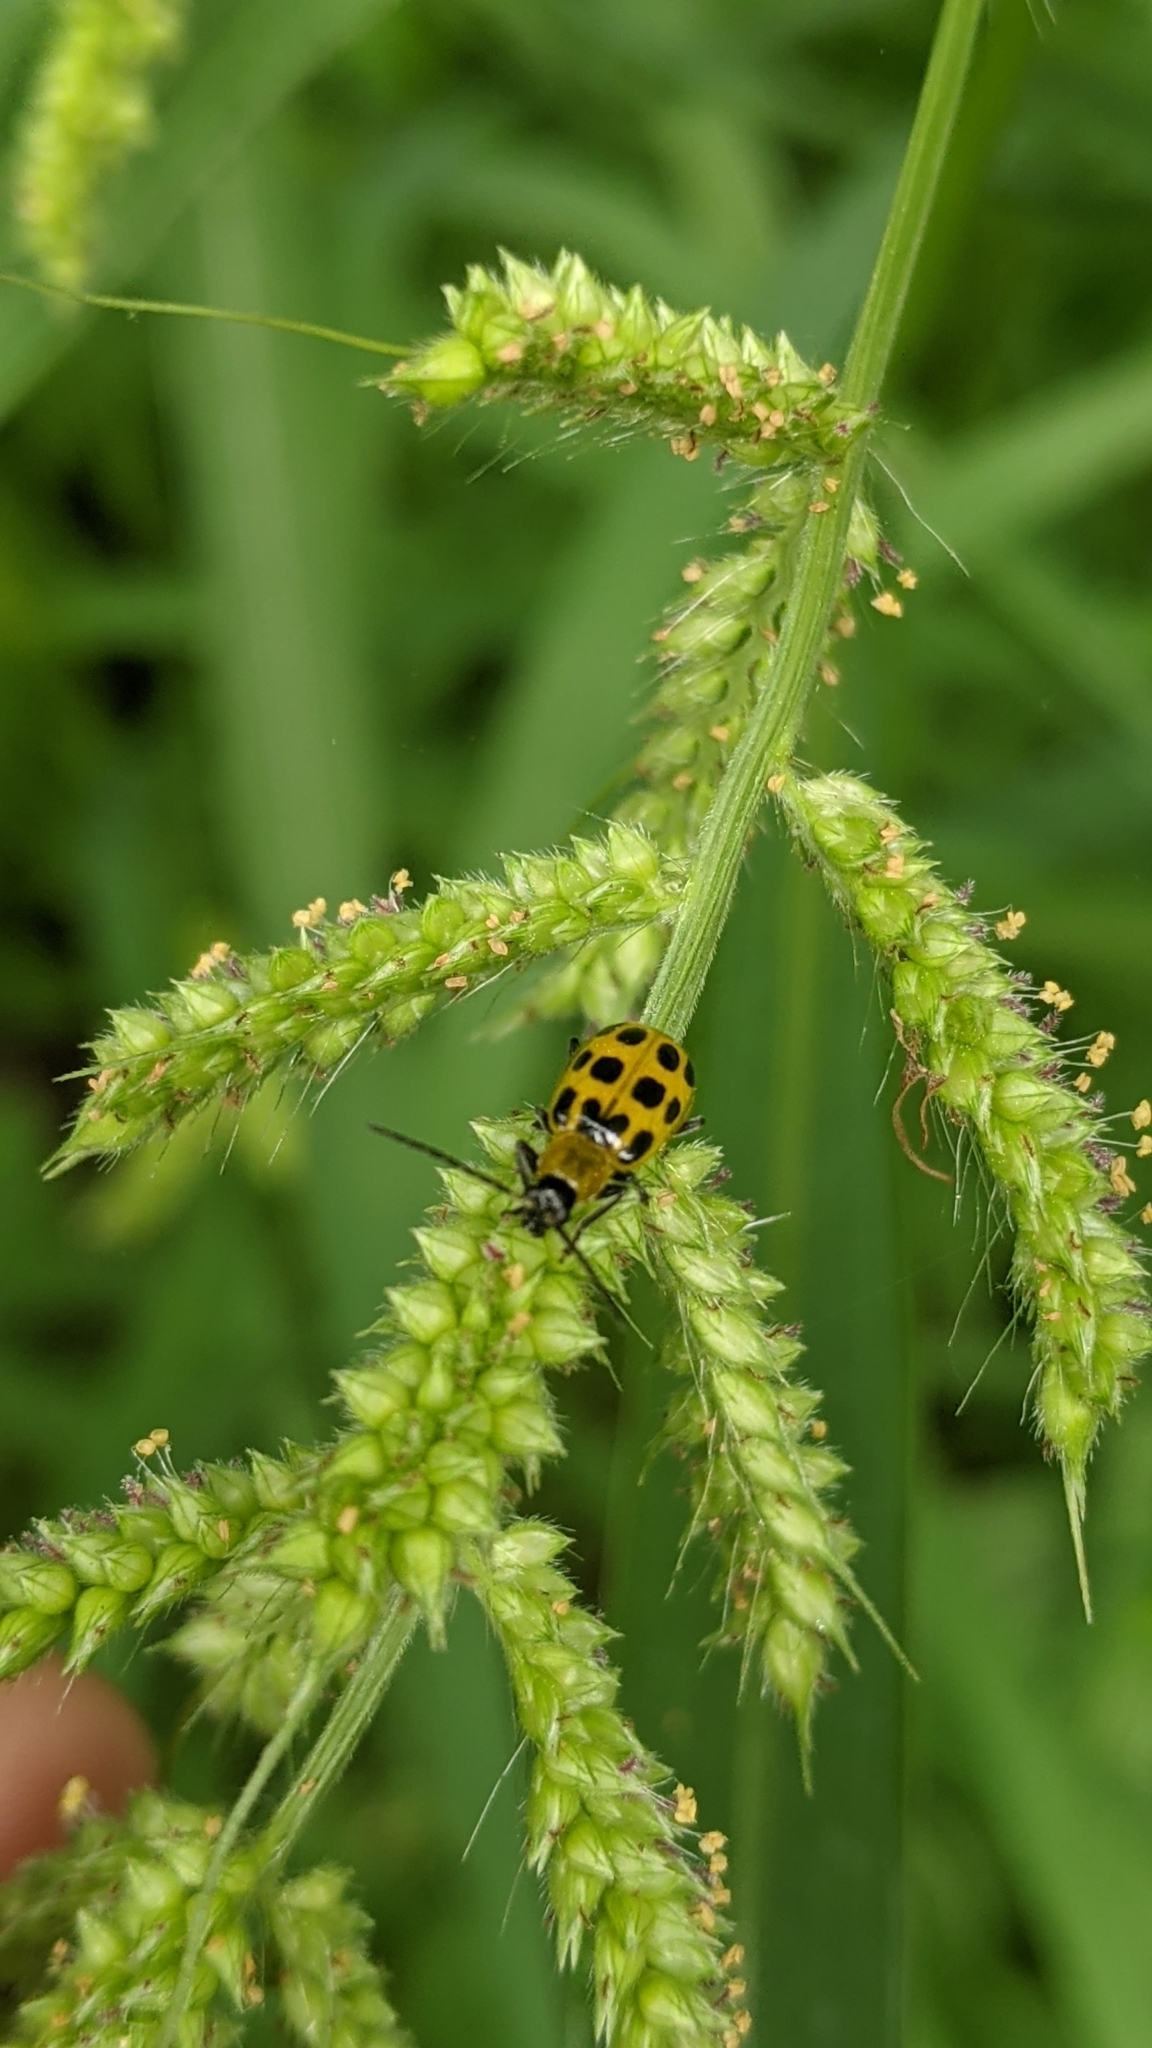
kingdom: Animalia
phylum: Arthropoda
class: Insecta
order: Coleoptera
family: Chrysomelidae
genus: Diabrotica
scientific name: Diabrotica undecimpunctata
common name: Spotted cucumber beetle
